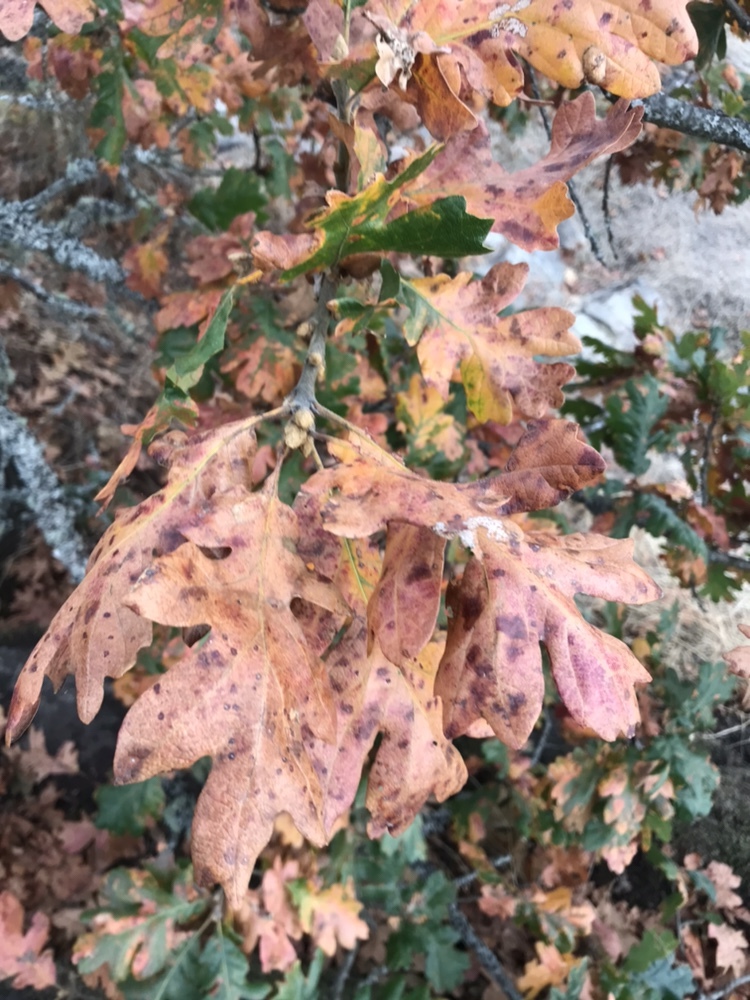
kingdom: Plantae
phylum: Tracheophyta
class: Magnoliopsida
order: Fagales
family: Fagaceae
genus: Quercus
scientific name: Quercus garryana
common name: Garry oak
